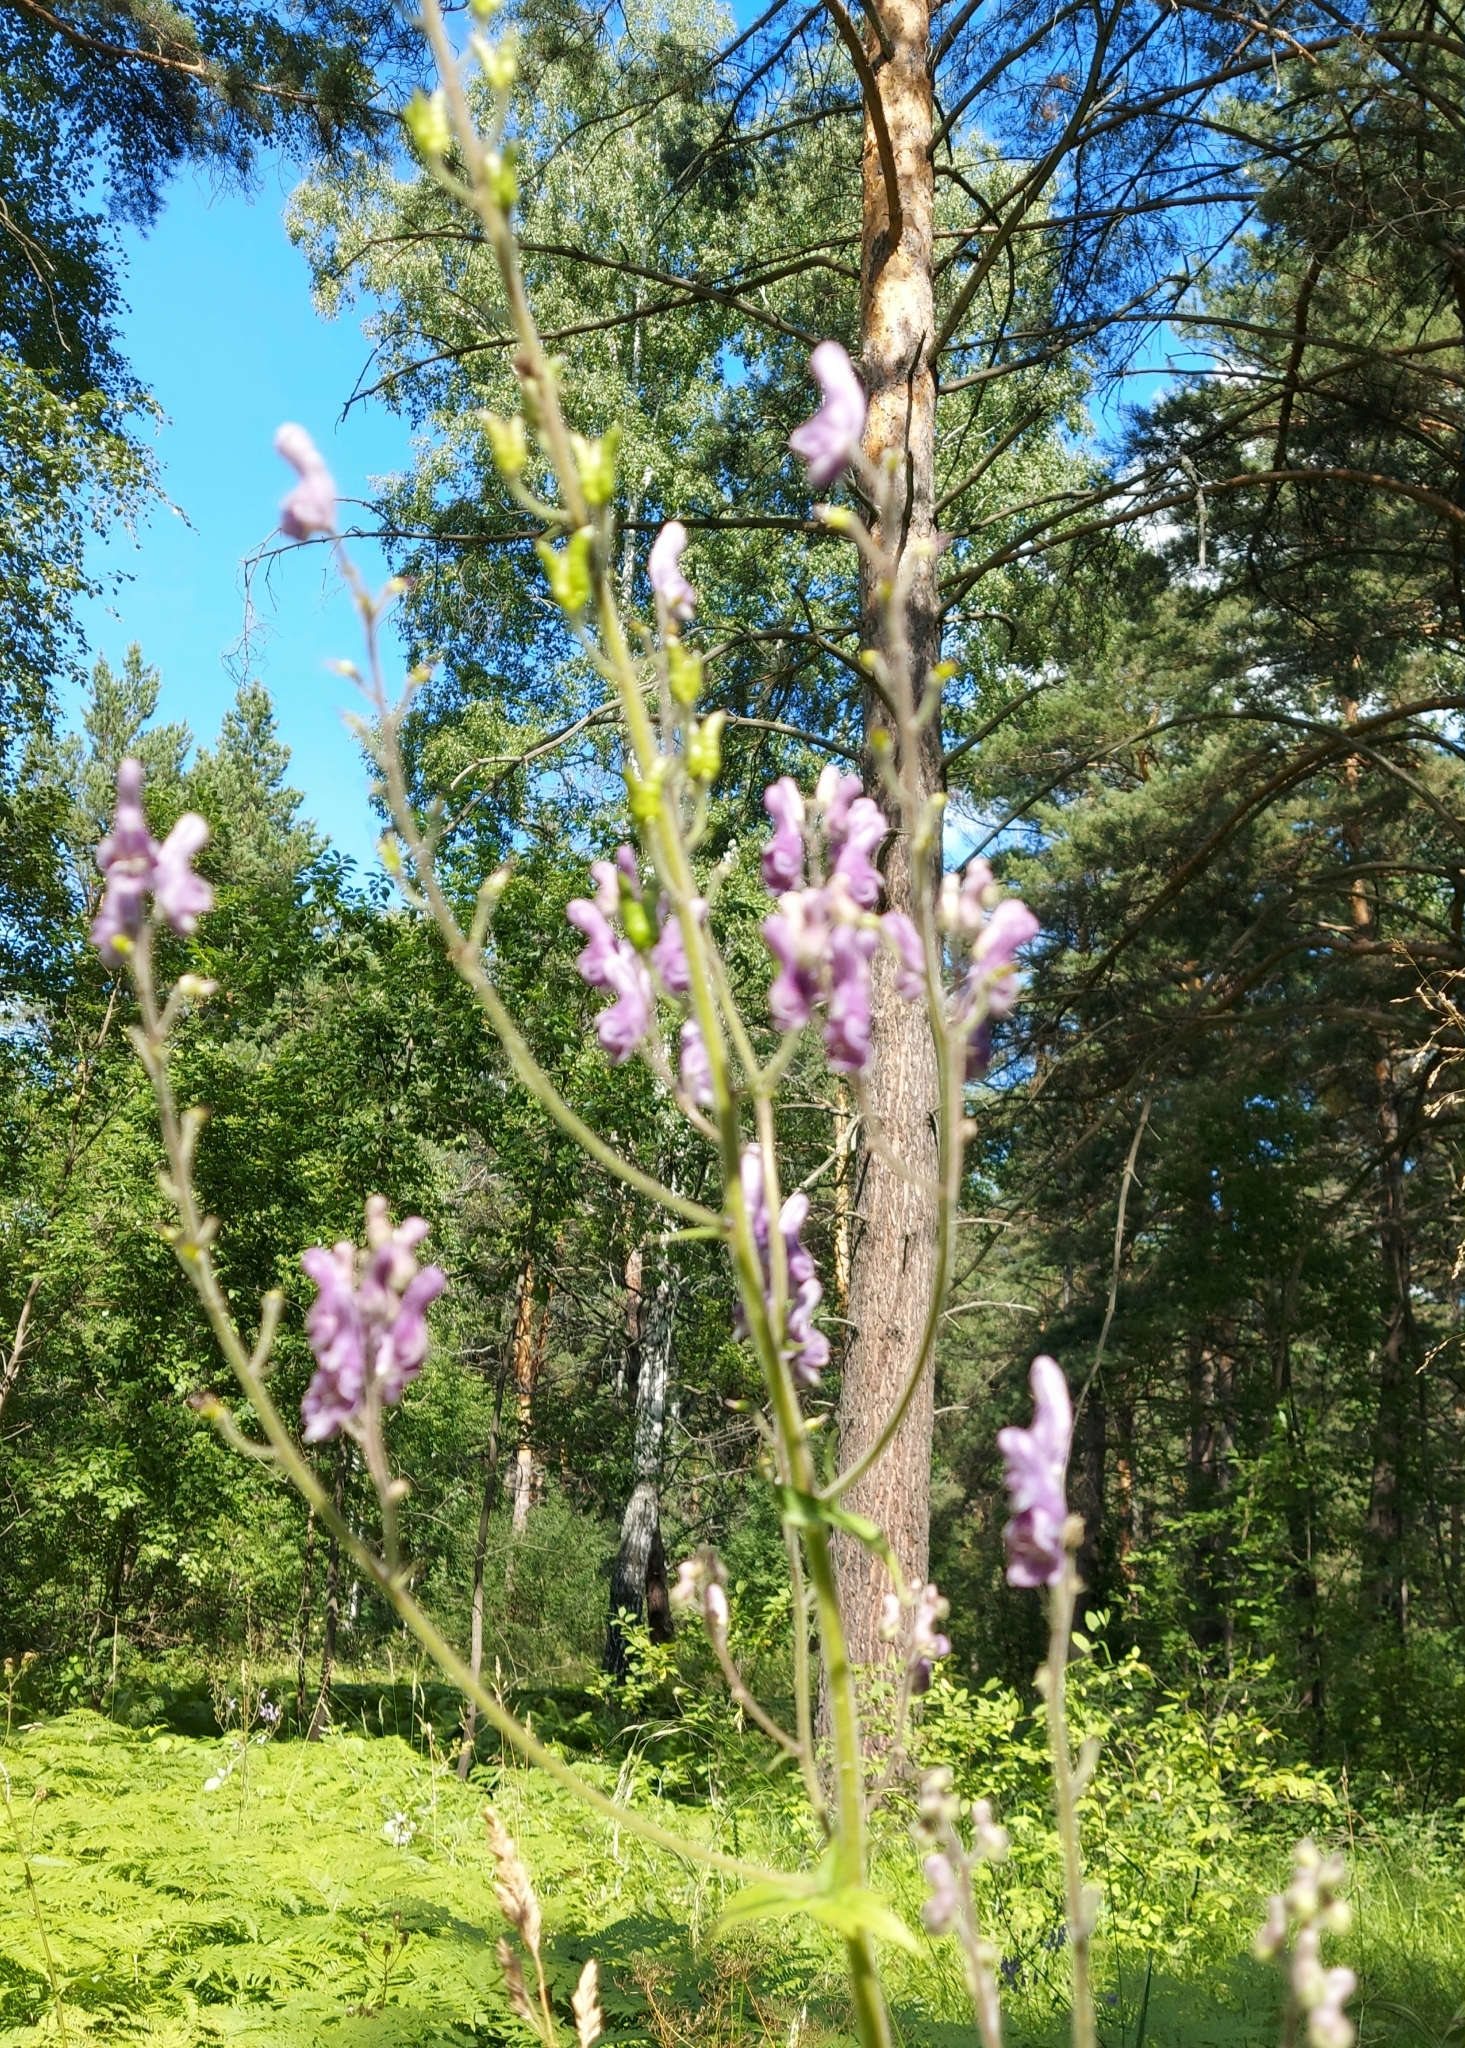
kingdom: Plantae
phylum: Tracheophyta
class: Magnoliopsida
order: Ranunculales
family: Ranunculaceae
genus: Aconitum
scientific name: Aconitum septentrionale
